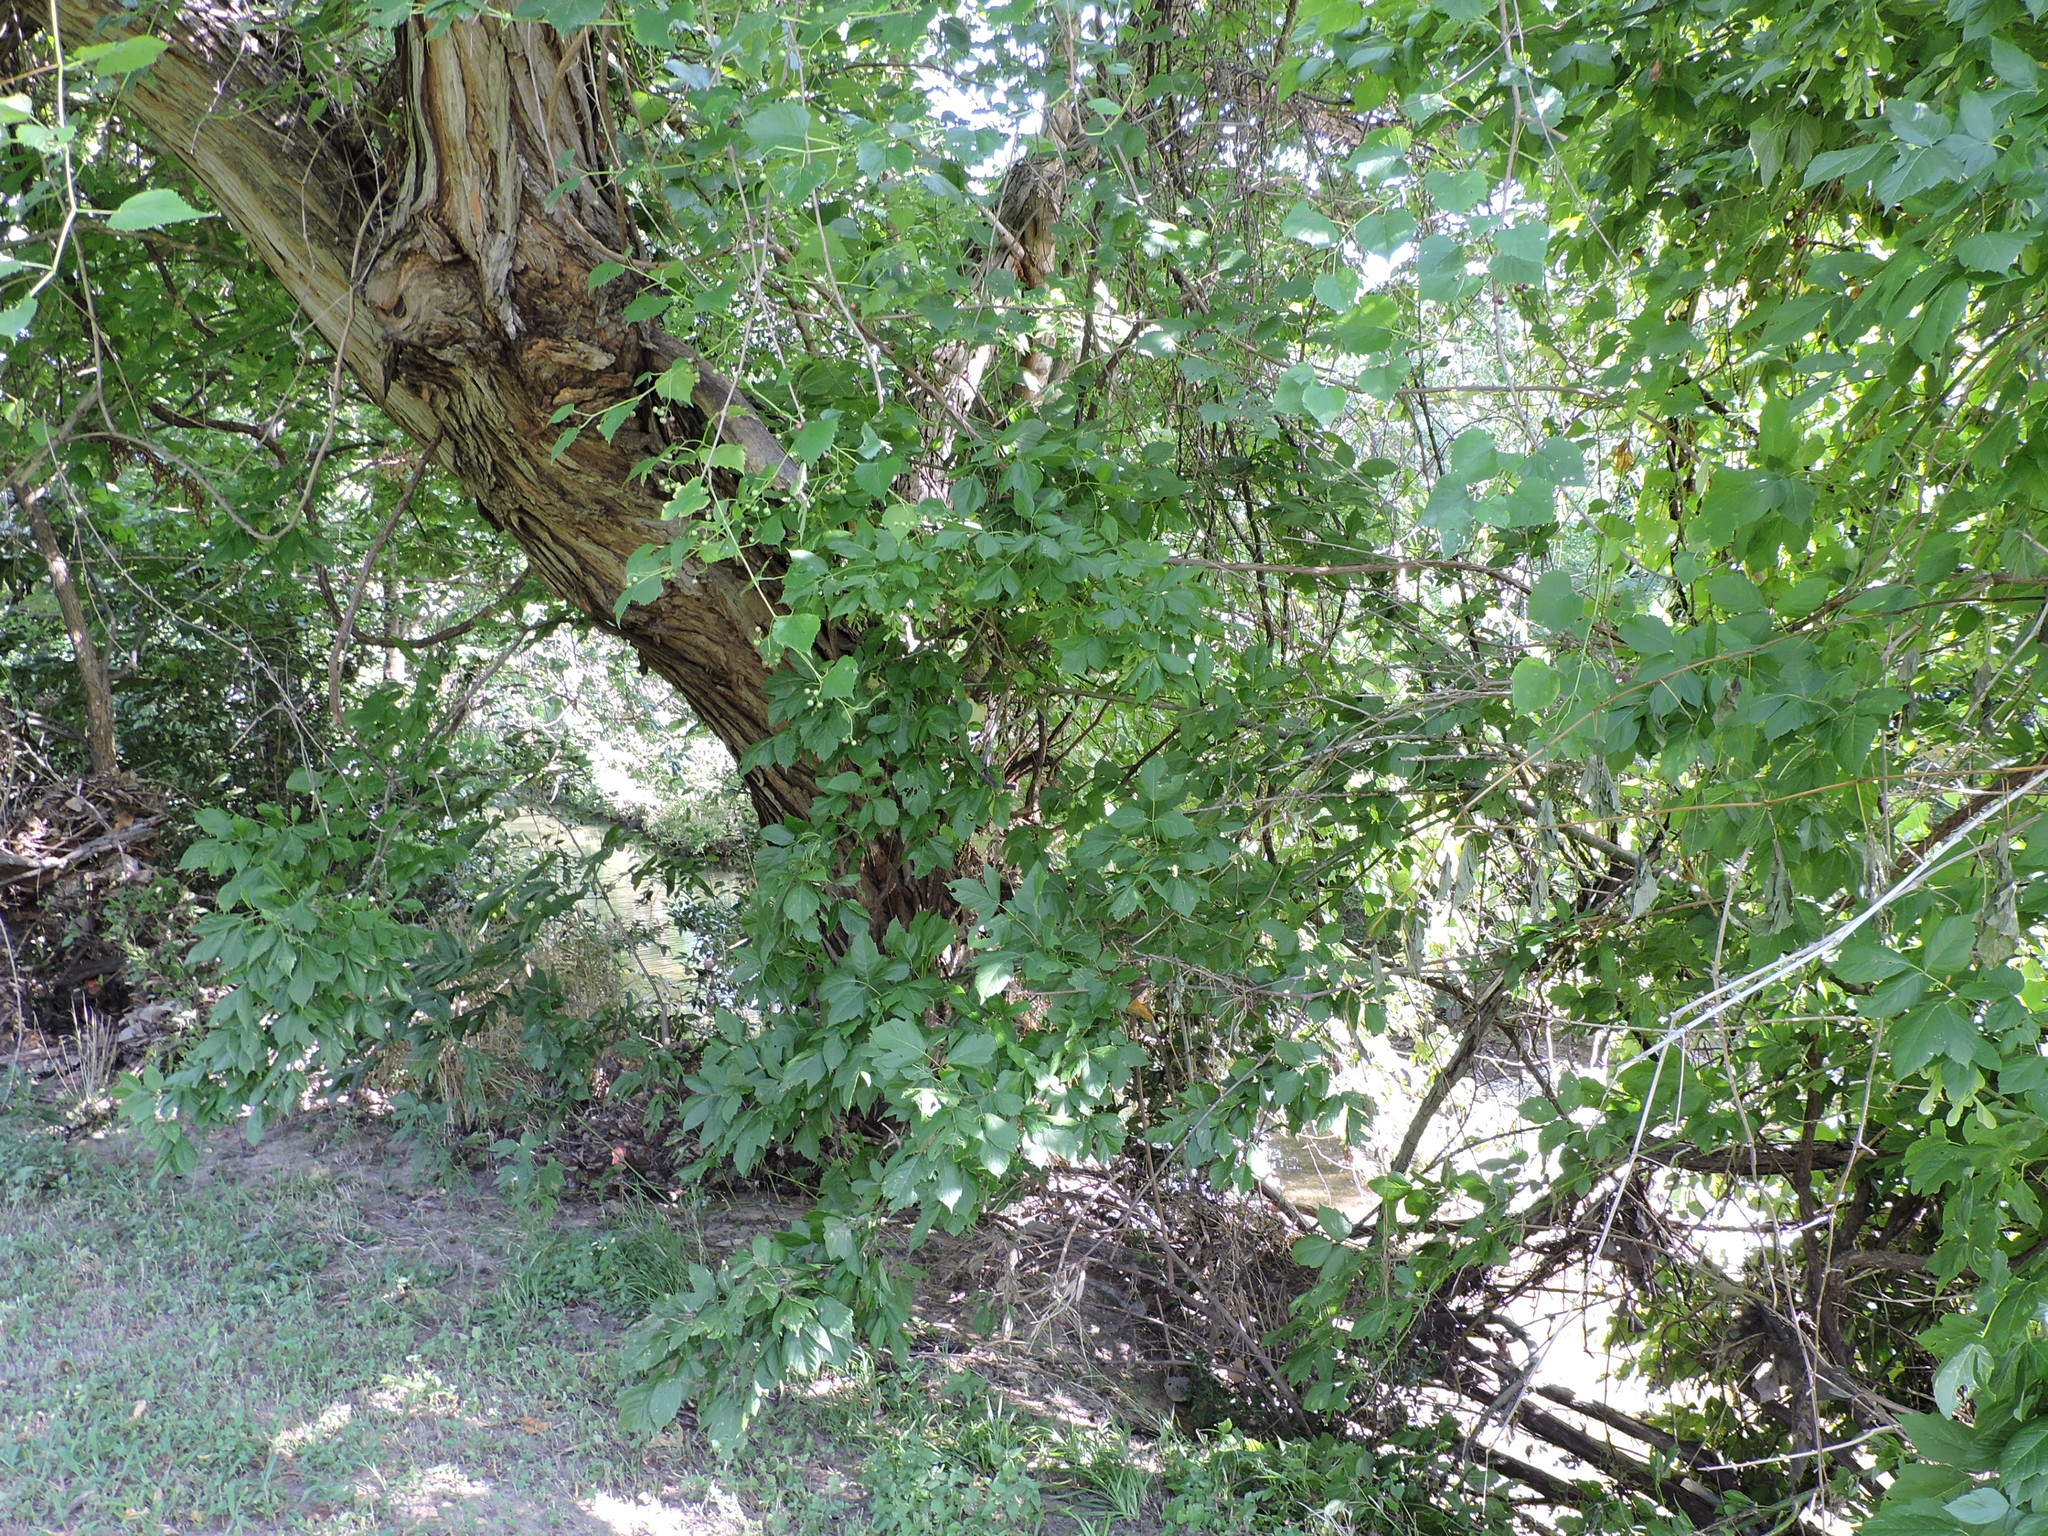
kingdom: Plantae
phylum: Tracheophyta
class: Magnoliopsida
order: Sapindales
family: Sapindaceae
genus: Acer
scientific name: Acer negundo
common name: Ashleaf maple
